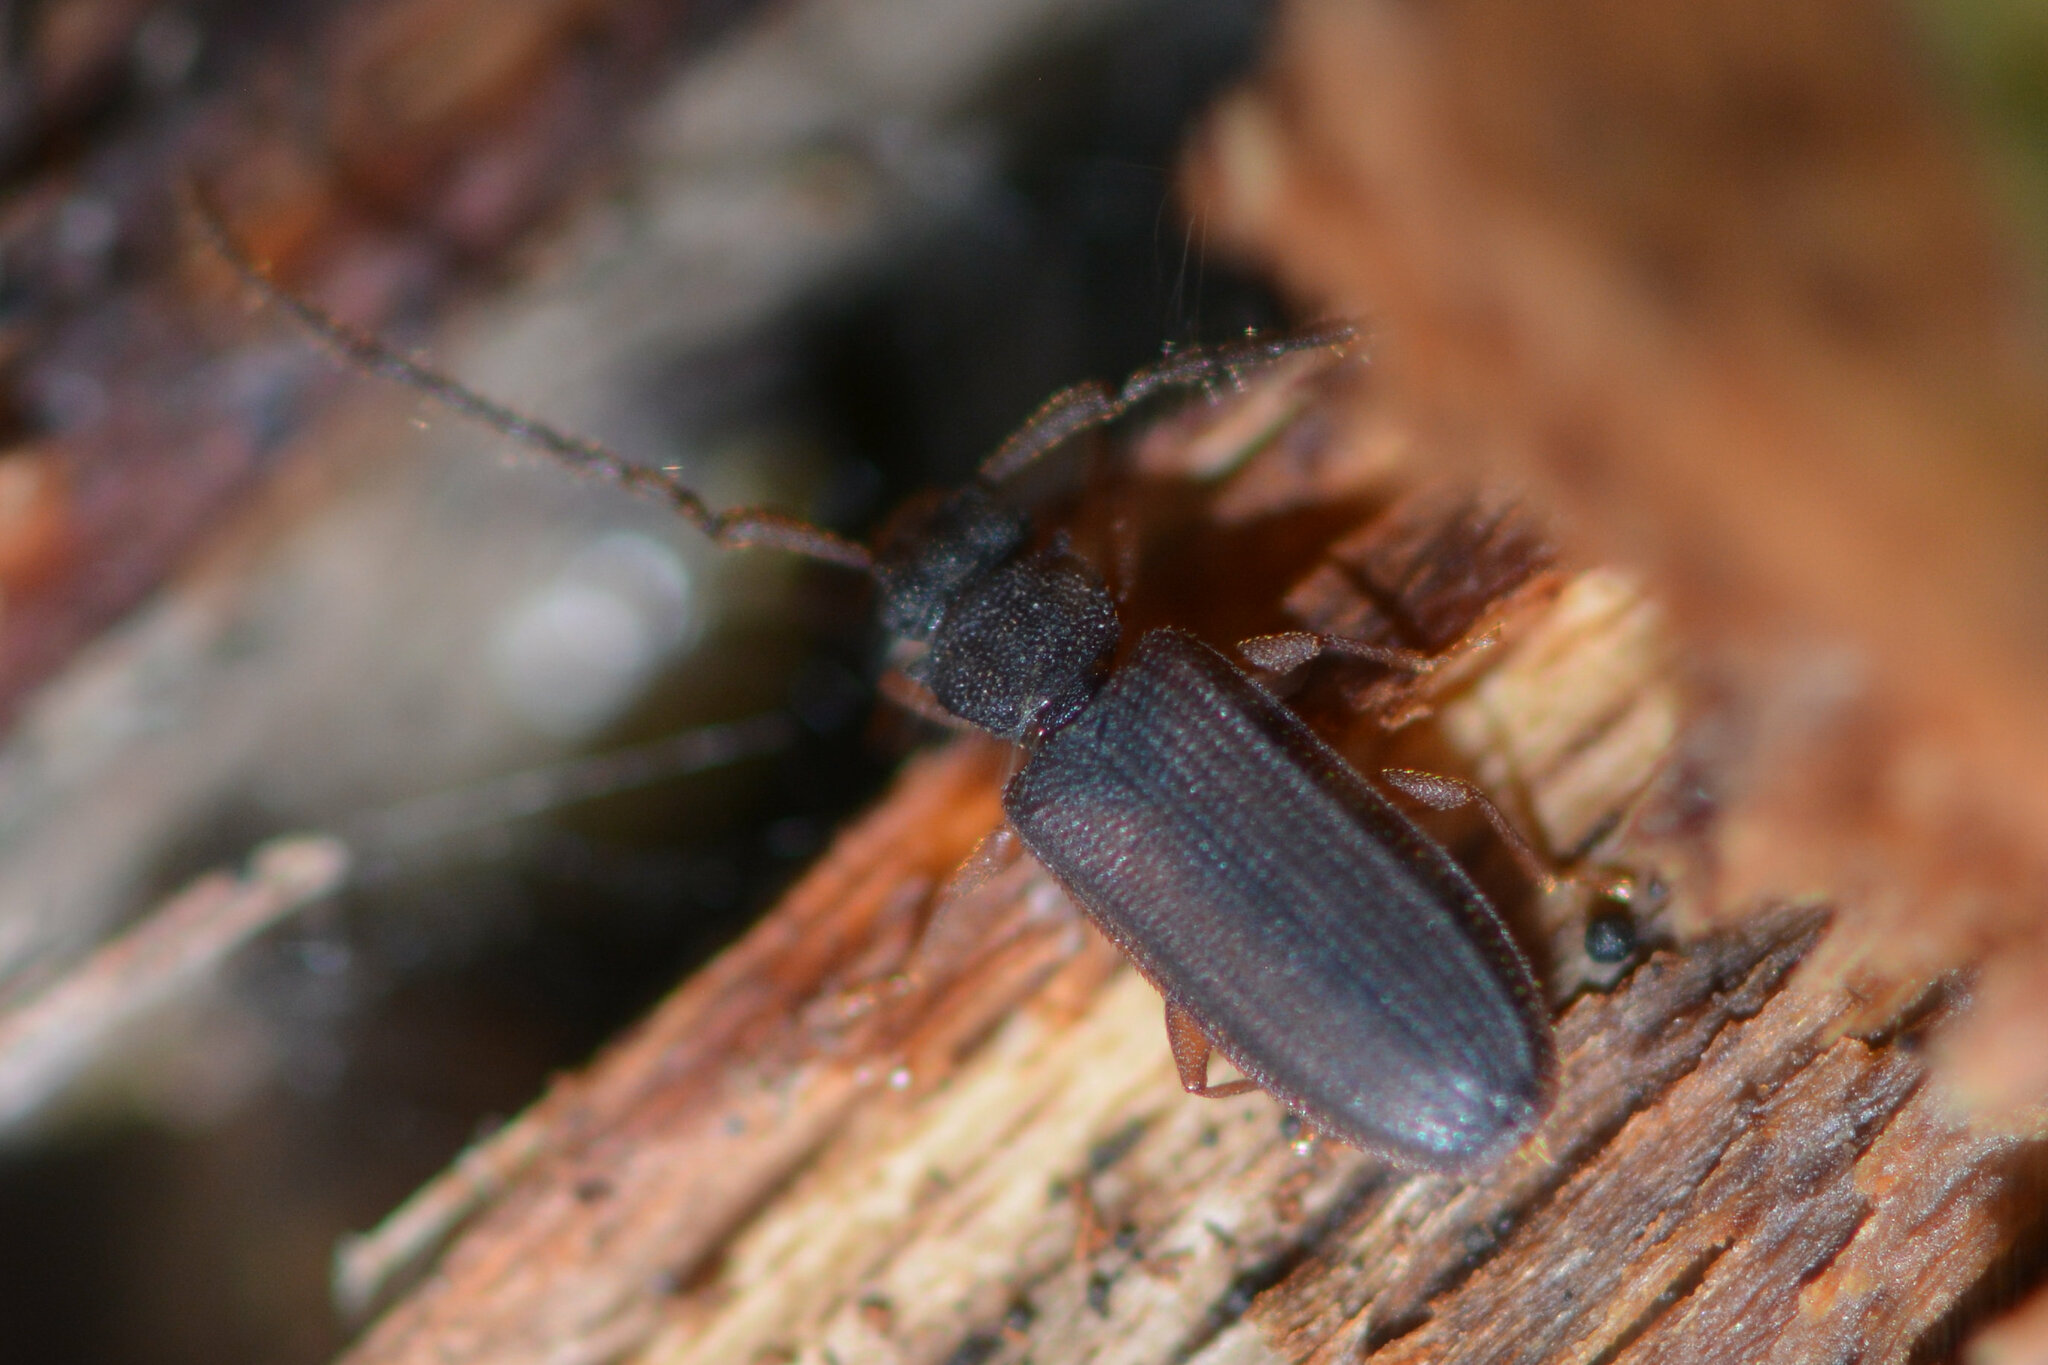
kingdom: Animalia
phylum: Arthropoda
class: Insecta
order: Coleoptera
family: Silvanidae
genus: Uleiota
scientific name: Uleiota planatus
